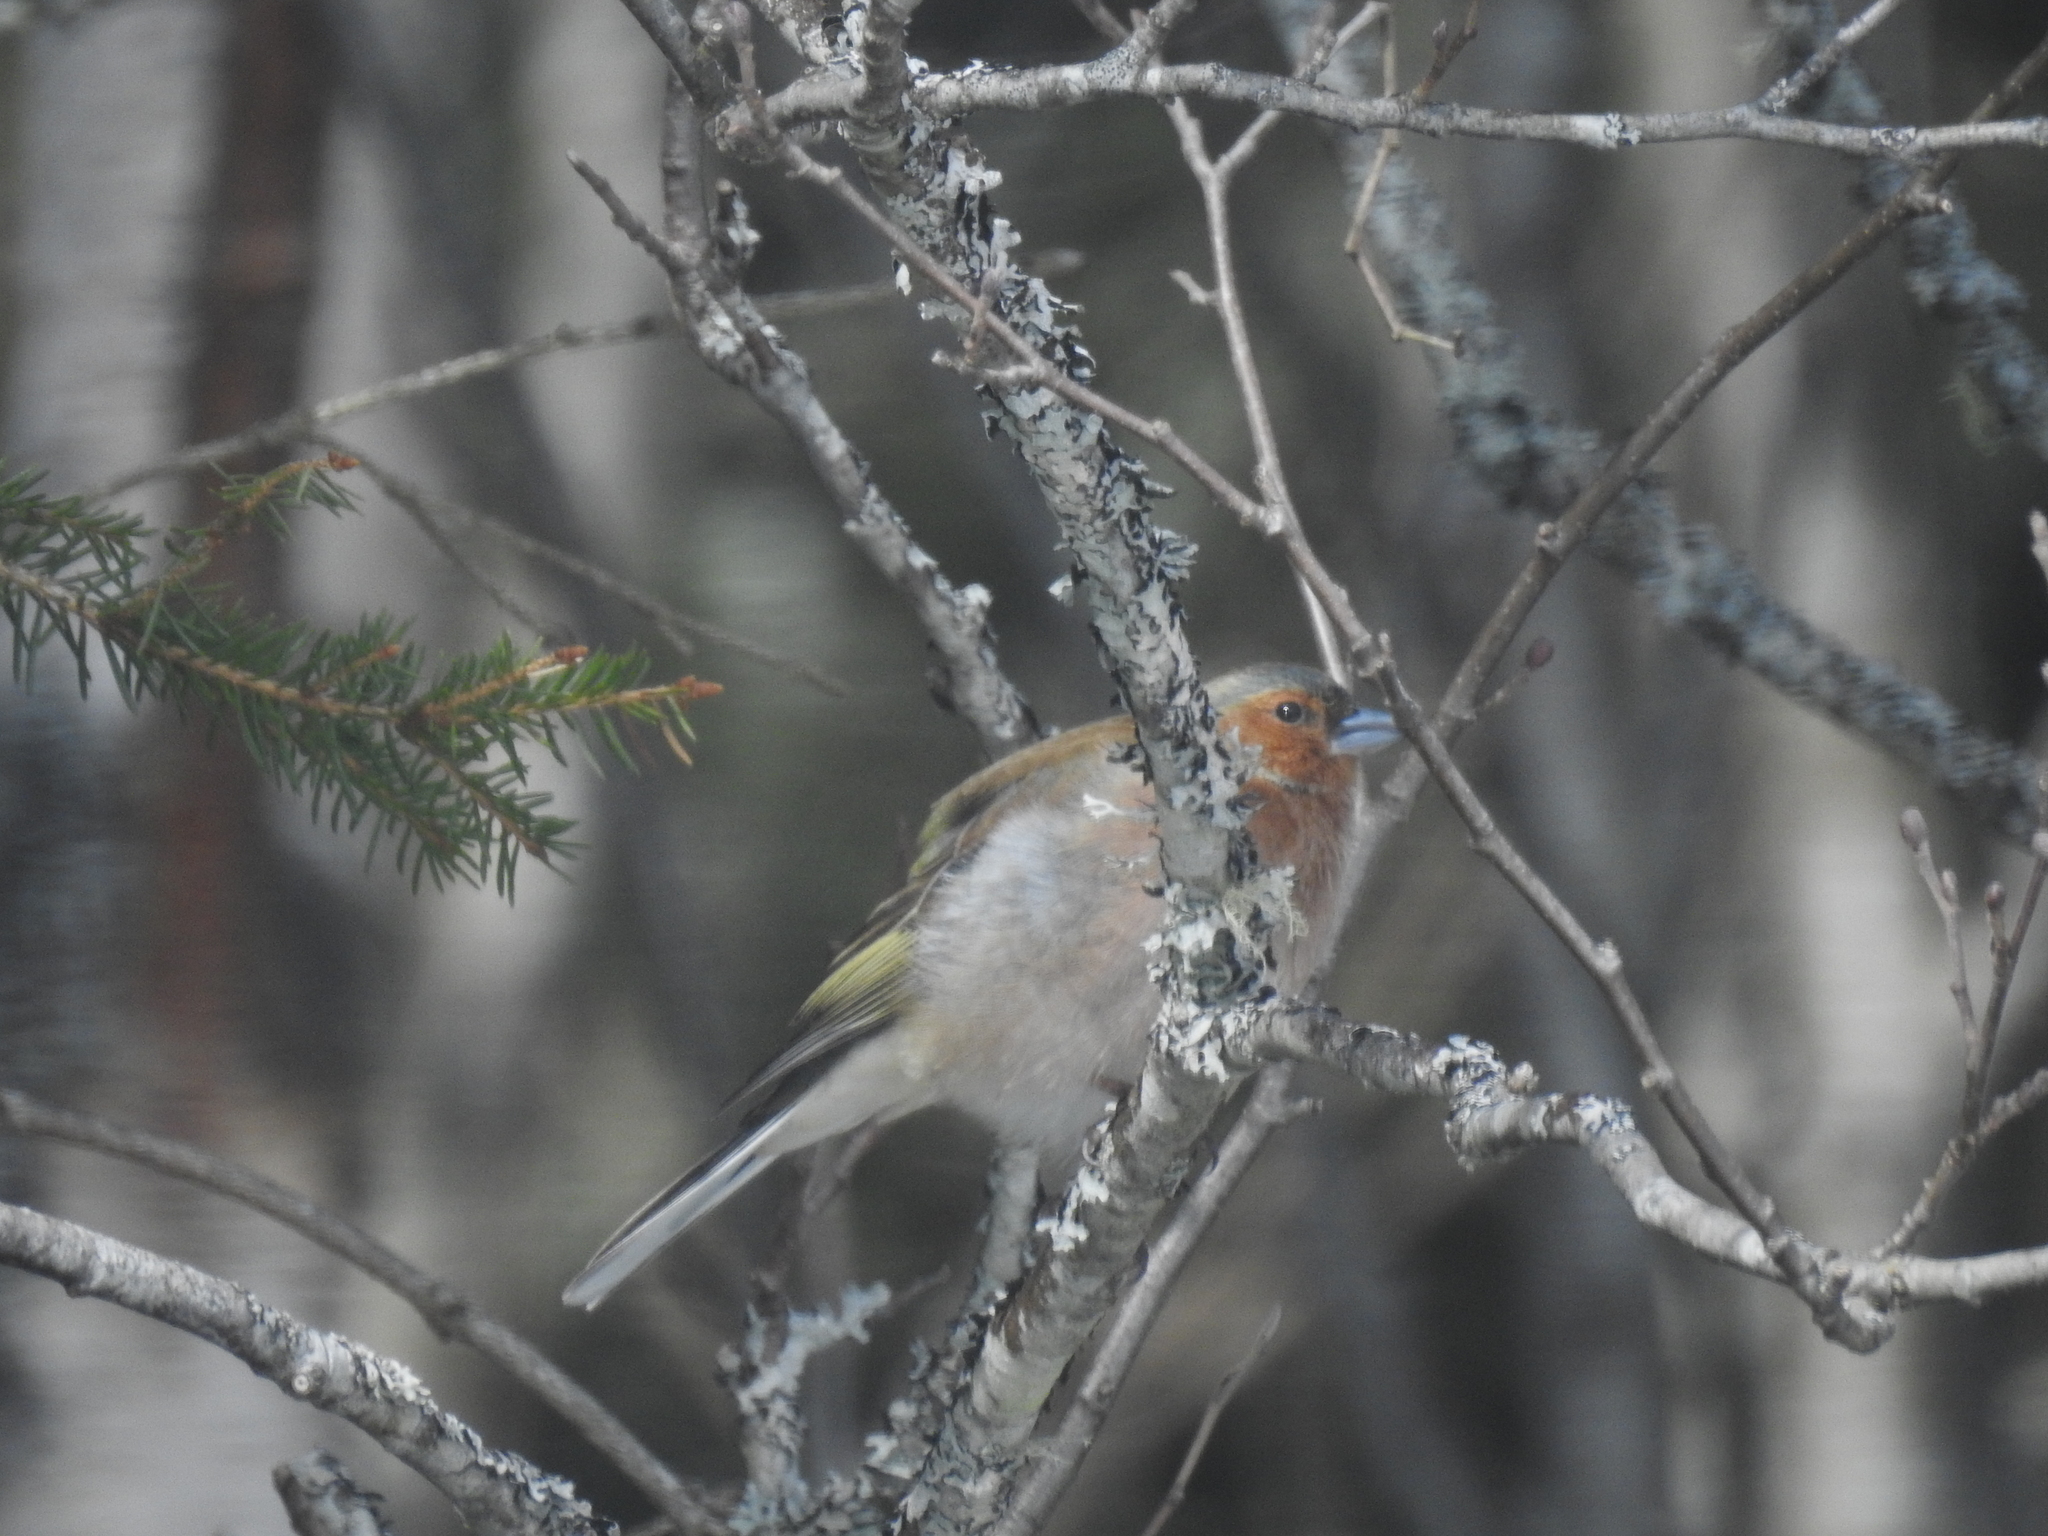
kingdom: Animalia
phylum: Chordata
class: Aves
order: Passeriformes
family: Fringillidae
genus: Fringilla
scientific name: Fringilla coelebs
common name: Common chaffinch
